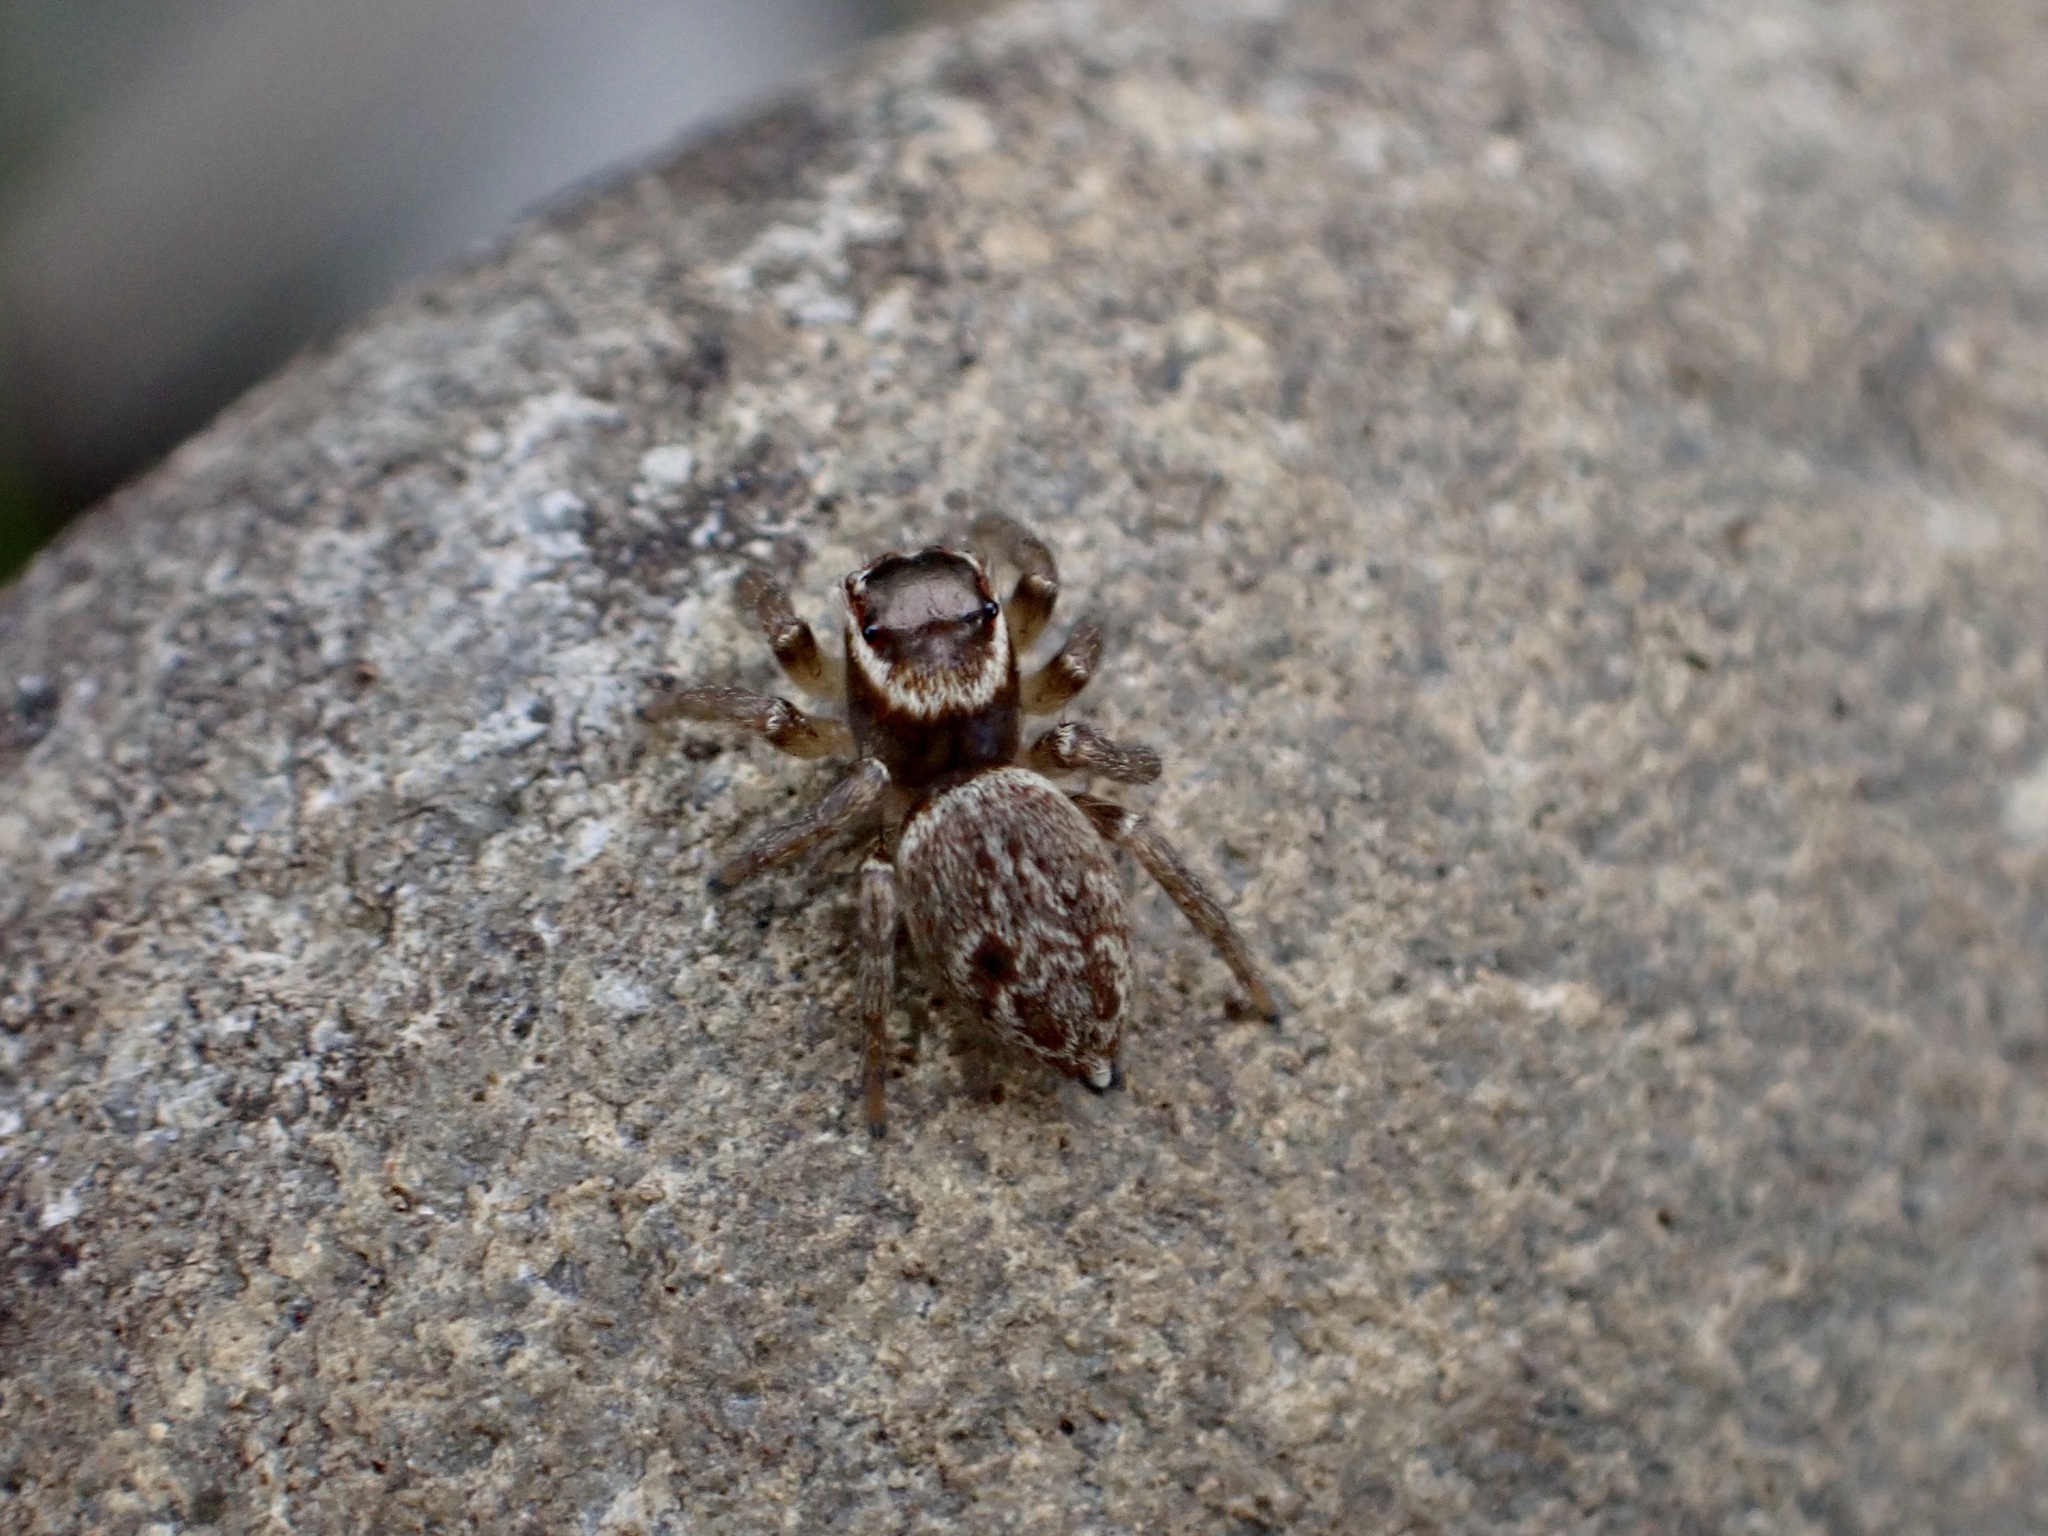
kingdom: Animalia
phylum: Arthropoda
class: Arachnida
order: Araneae
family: Salticidae
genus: Maratus
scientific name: Maratus griseus
